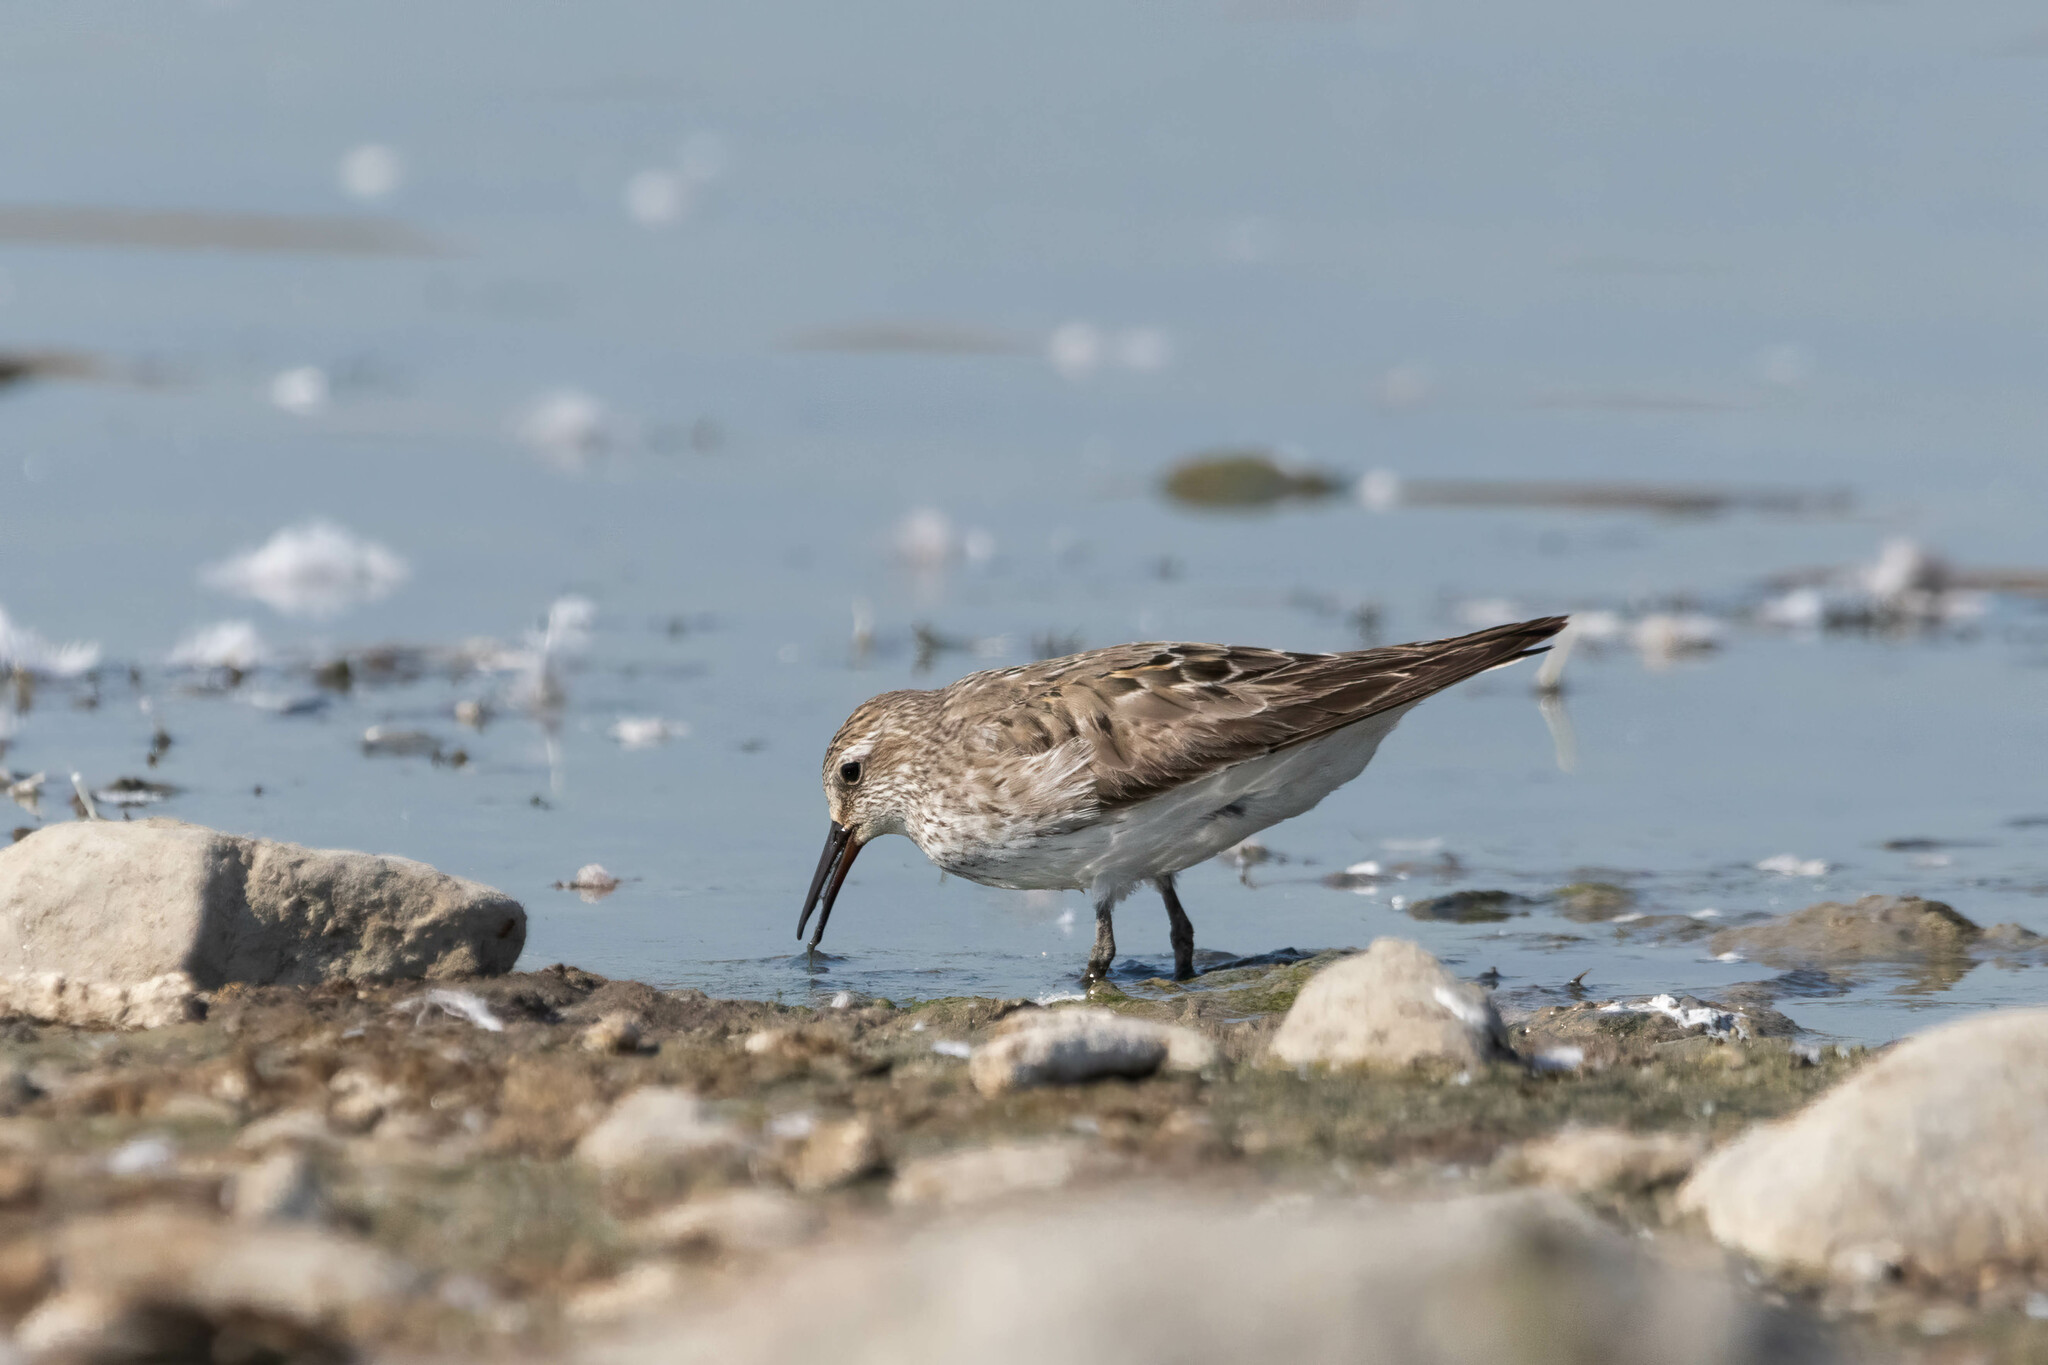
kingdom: Animalia
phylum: Chordata
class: Aves
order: Charadriiformes
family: Scolopacidae
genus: Calidris
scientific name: Calidris fuscicollis
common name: White-rumped sandpiper
